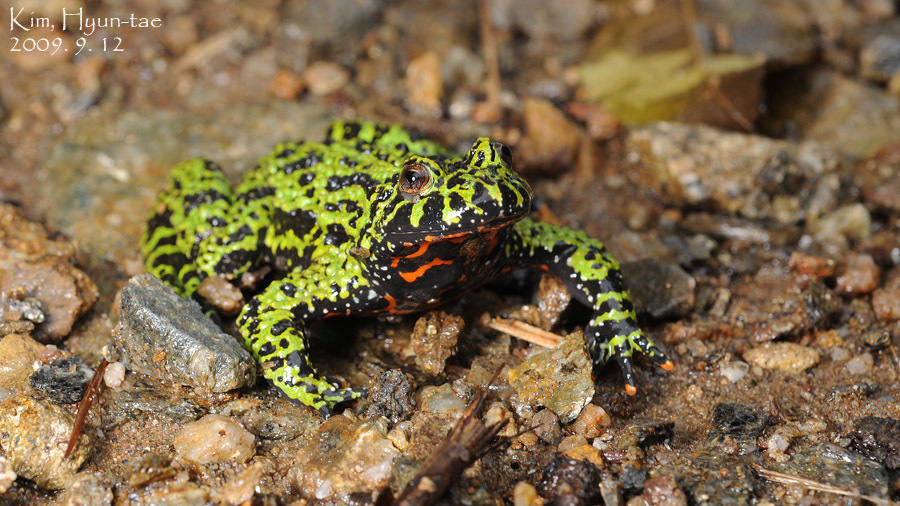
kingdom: Animalia
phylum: Chordata
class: Amphibia
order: Anura
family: Bombinatoridae
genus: Bombina
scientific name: Bombina orientalis
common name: Oriental firebelly toad
